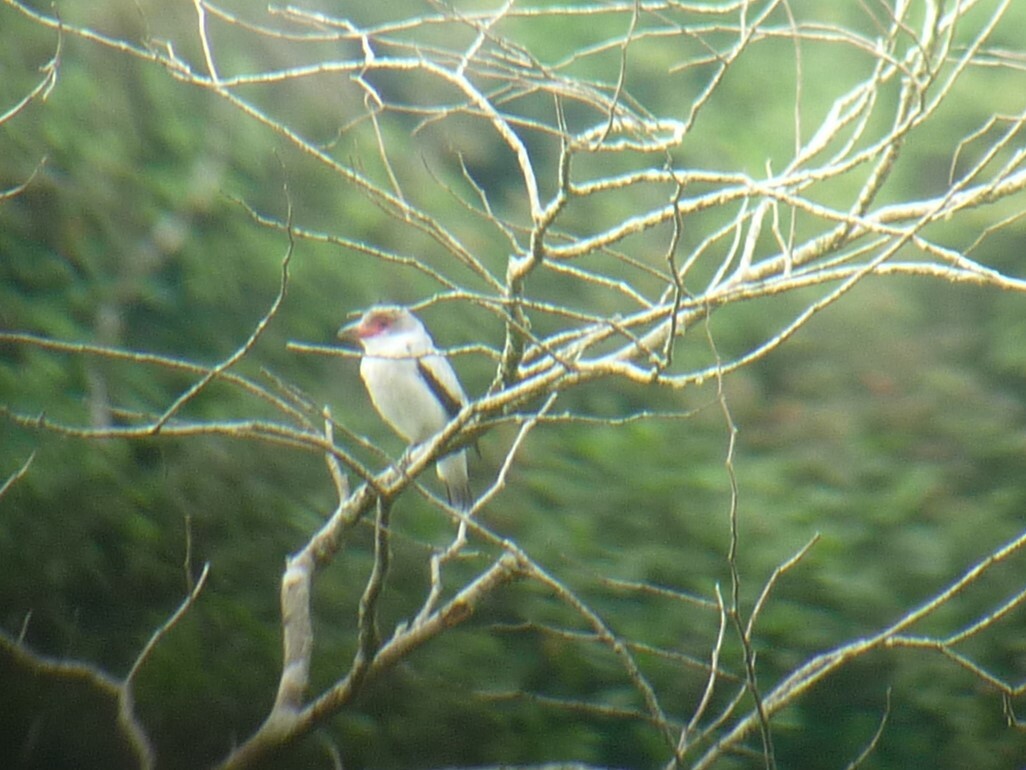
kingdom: Animalia
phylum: Chordata
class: Aves
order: Passeriformes
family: Cotingidae
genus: Tityra
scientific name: Tityra semifasciata
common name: Masked tityra
